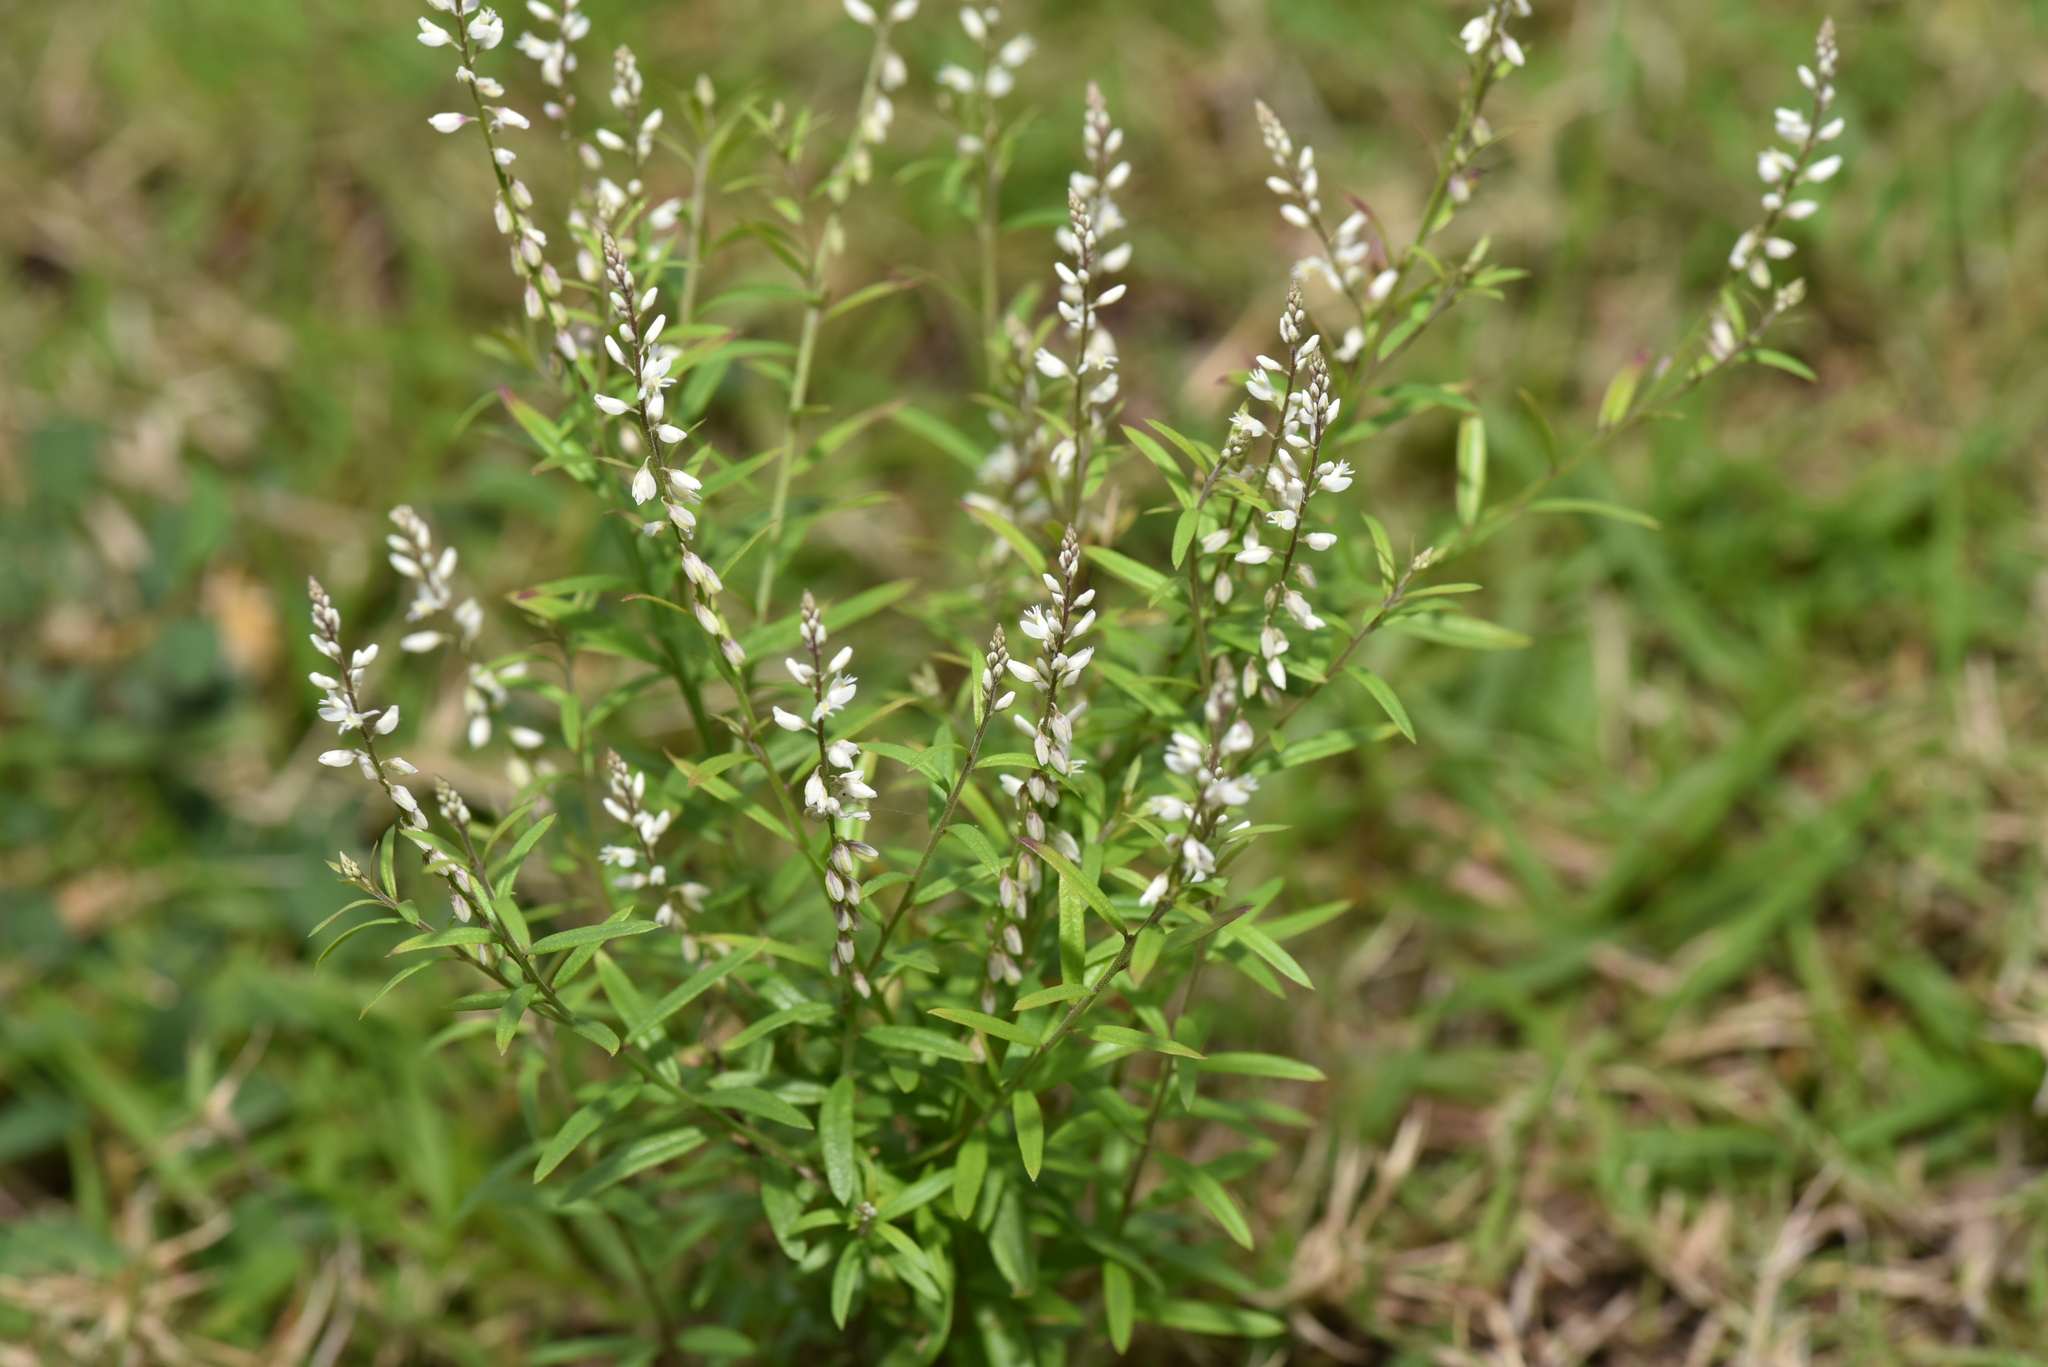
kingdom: Plantae
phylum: Tracheophyta
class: Magnoliopsida
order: Fabales
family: Polygalaceae
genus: Polygala
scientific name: Polygala paniculata
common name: Orosne
